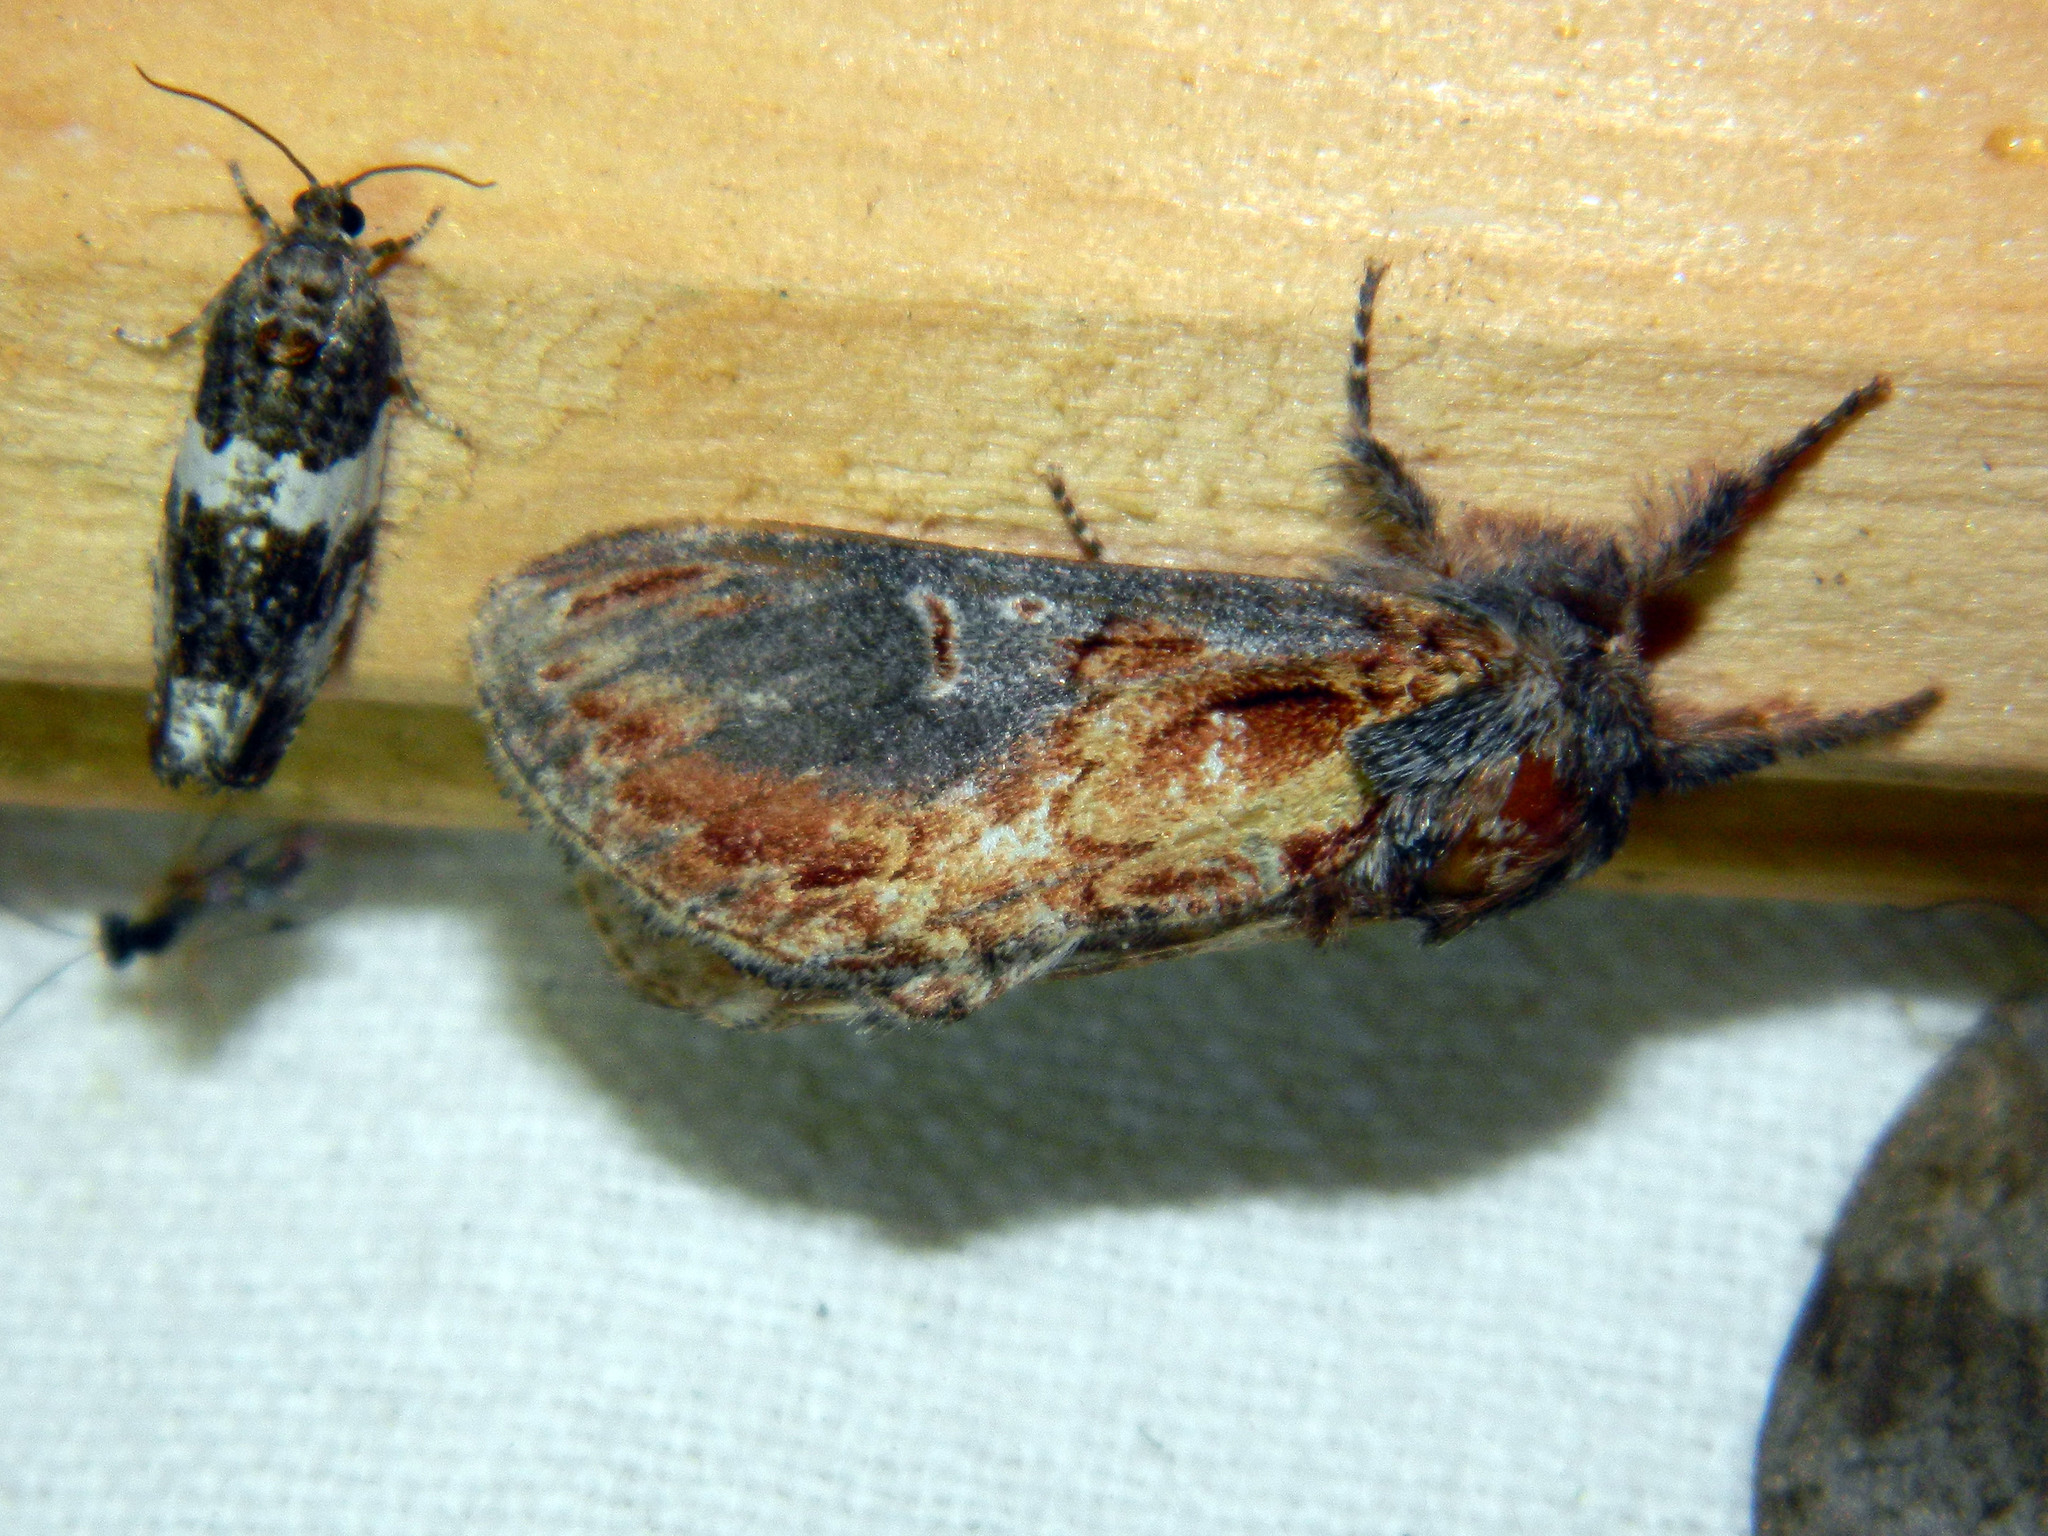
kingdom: Animalia
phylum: Arthropoda
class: Insecta
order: Lepidoptera
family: Notodontidae
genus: Notodonta
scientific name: Notodonta scitipennis
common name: Finned-willow prominent moth
